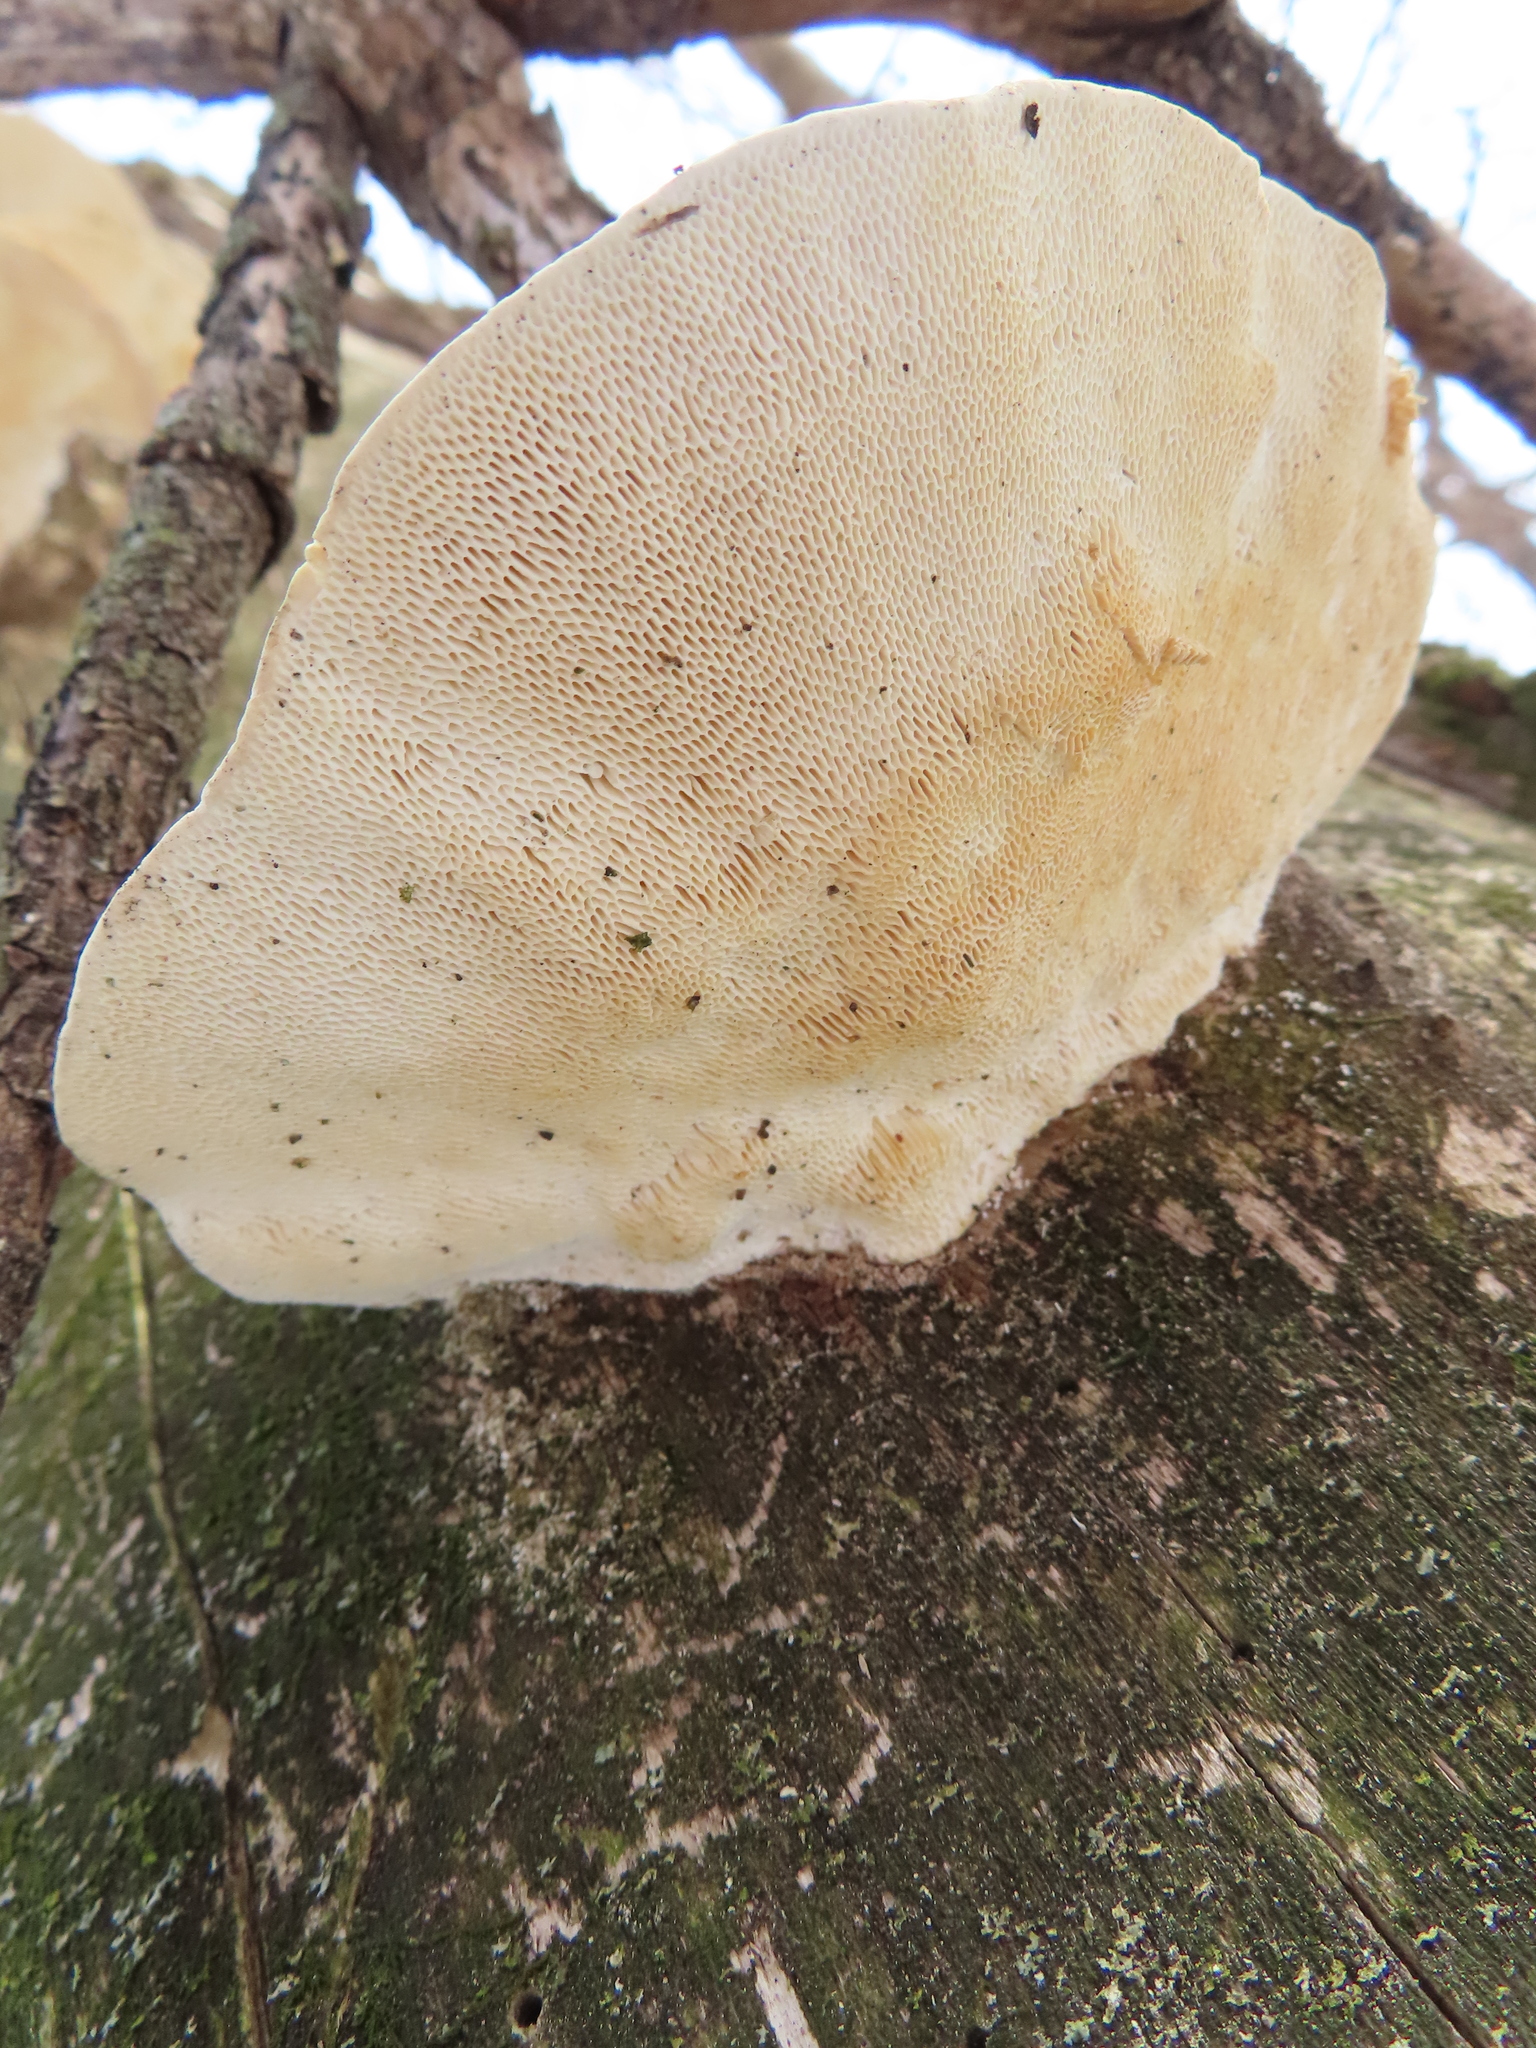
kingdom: Fungi
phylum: Basidiomycota
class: Agaricomycetes
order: Polyporales
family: Polyporaceae
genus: Trametes
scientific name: Trametes gibbosa
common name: Lumpy bracket
